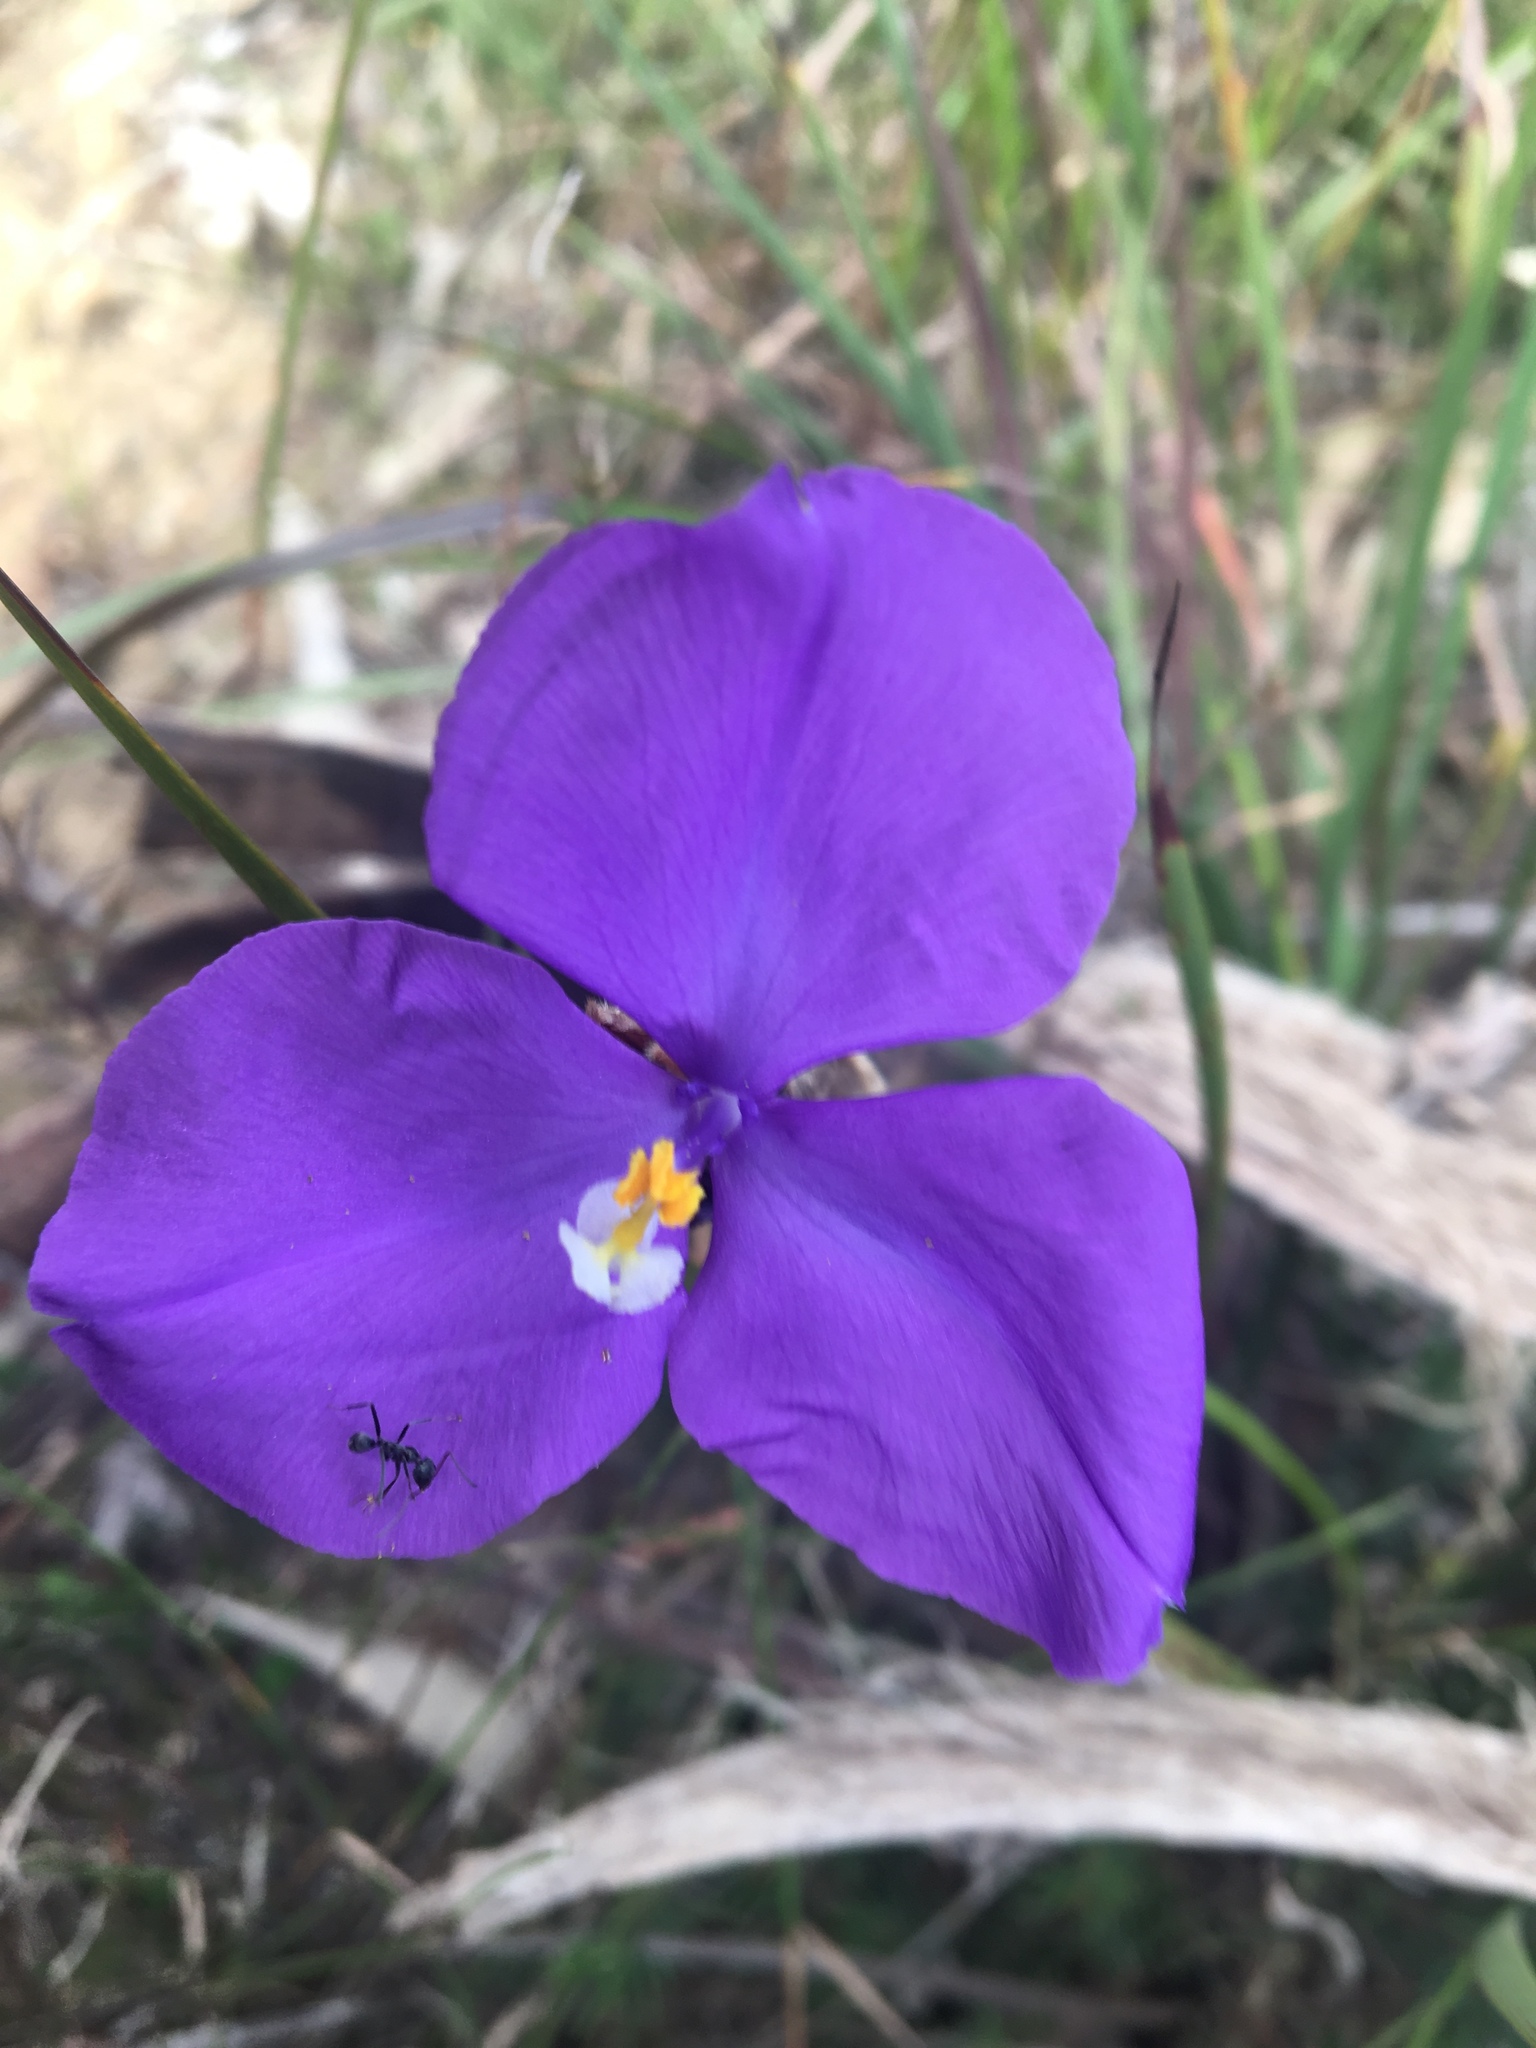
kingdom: Plantae
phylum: Tracheophyta
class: Liliopsida
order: Asparagales
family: Iridaceae
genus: Patersonia
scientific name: Patersonia sericea
